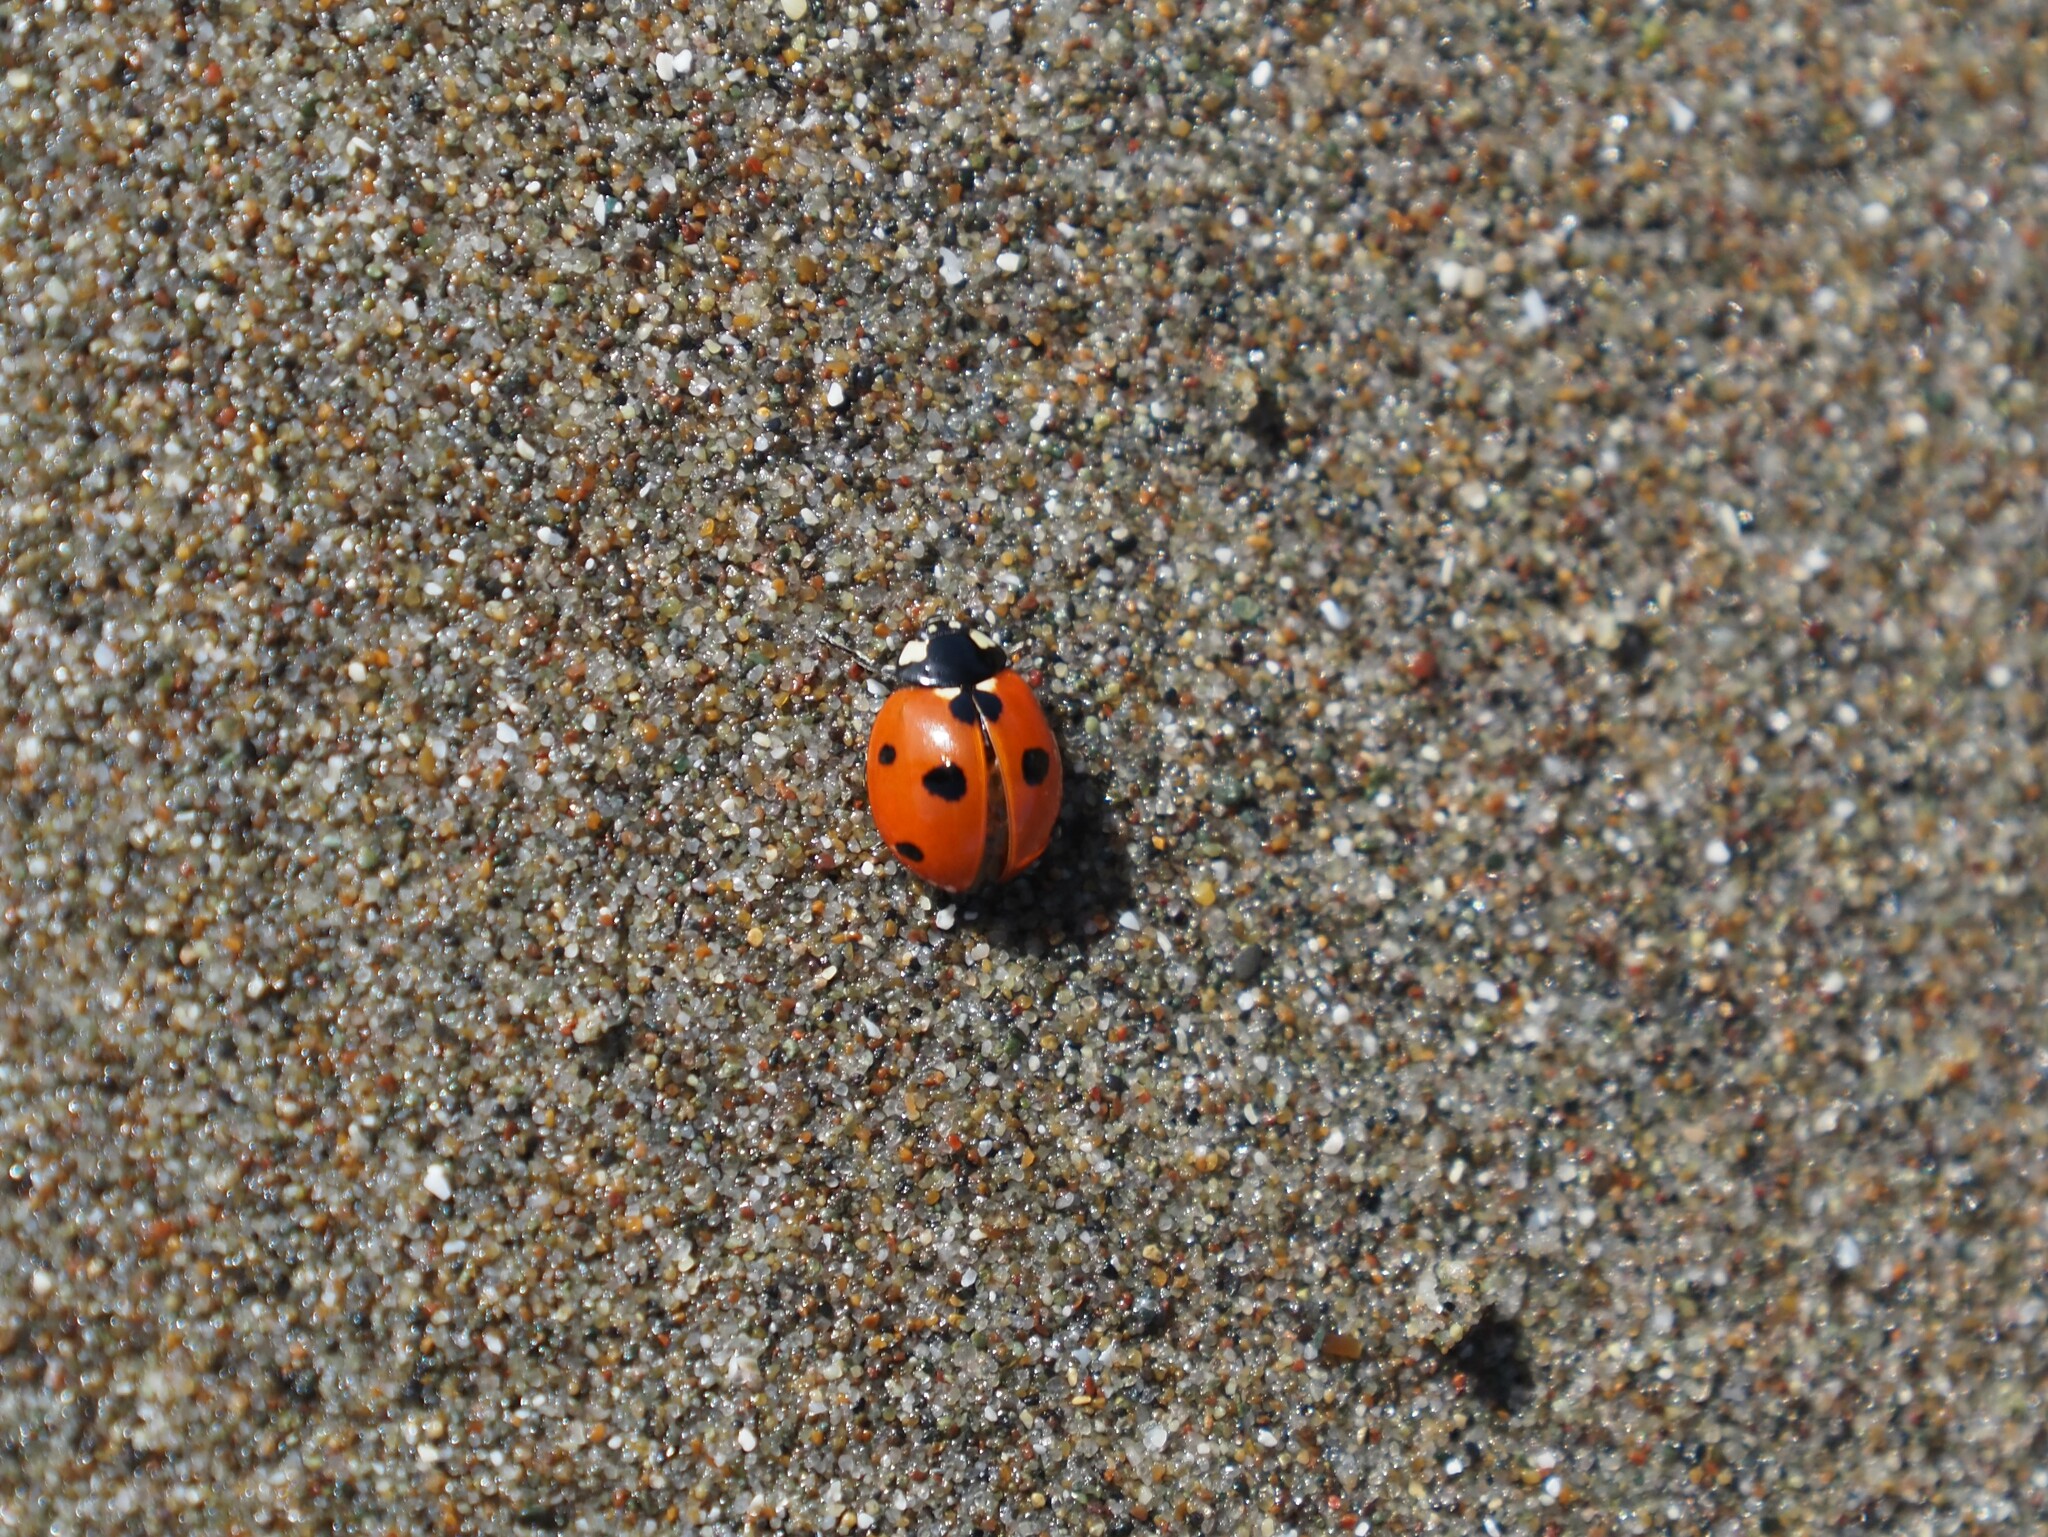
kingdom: Animalia
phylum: Arthropoda
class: Insecta
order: Coleoptera
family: Coccinellidae
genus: Coccinella
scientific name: Coccinella septempunctata
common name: Sevenspotted lady beetle
